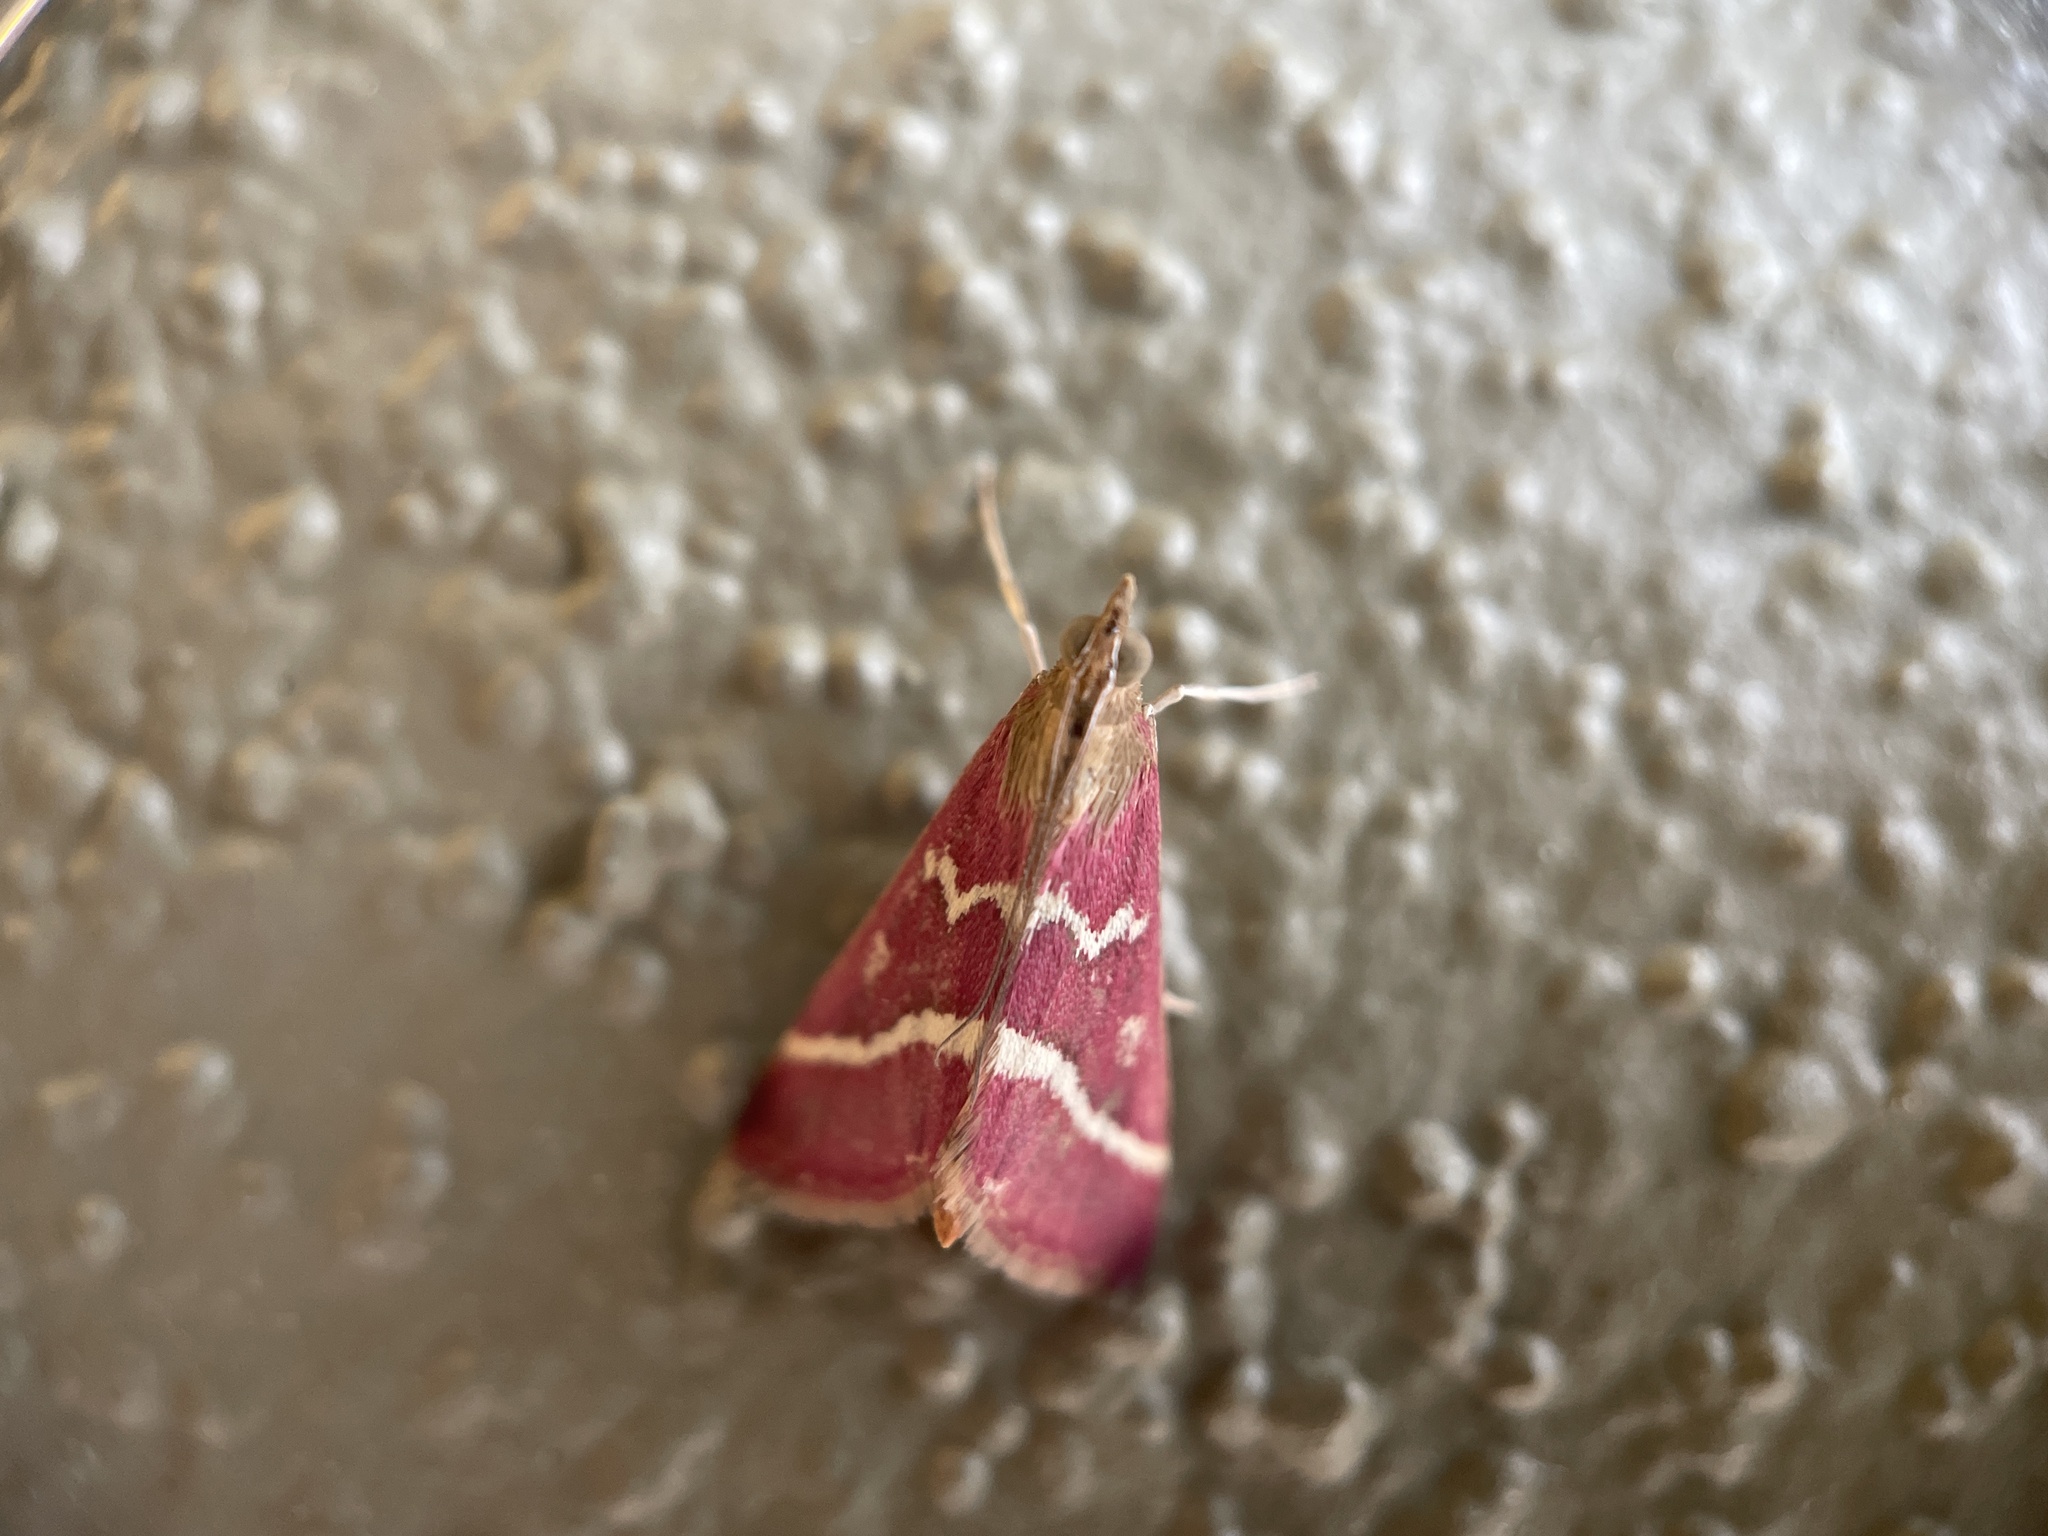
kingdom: Animalia
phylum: Arthropoda
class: Insecta
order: Lepidoptera
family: Crambidae
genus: Pyrausta
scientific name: Pyrausta volupialis
